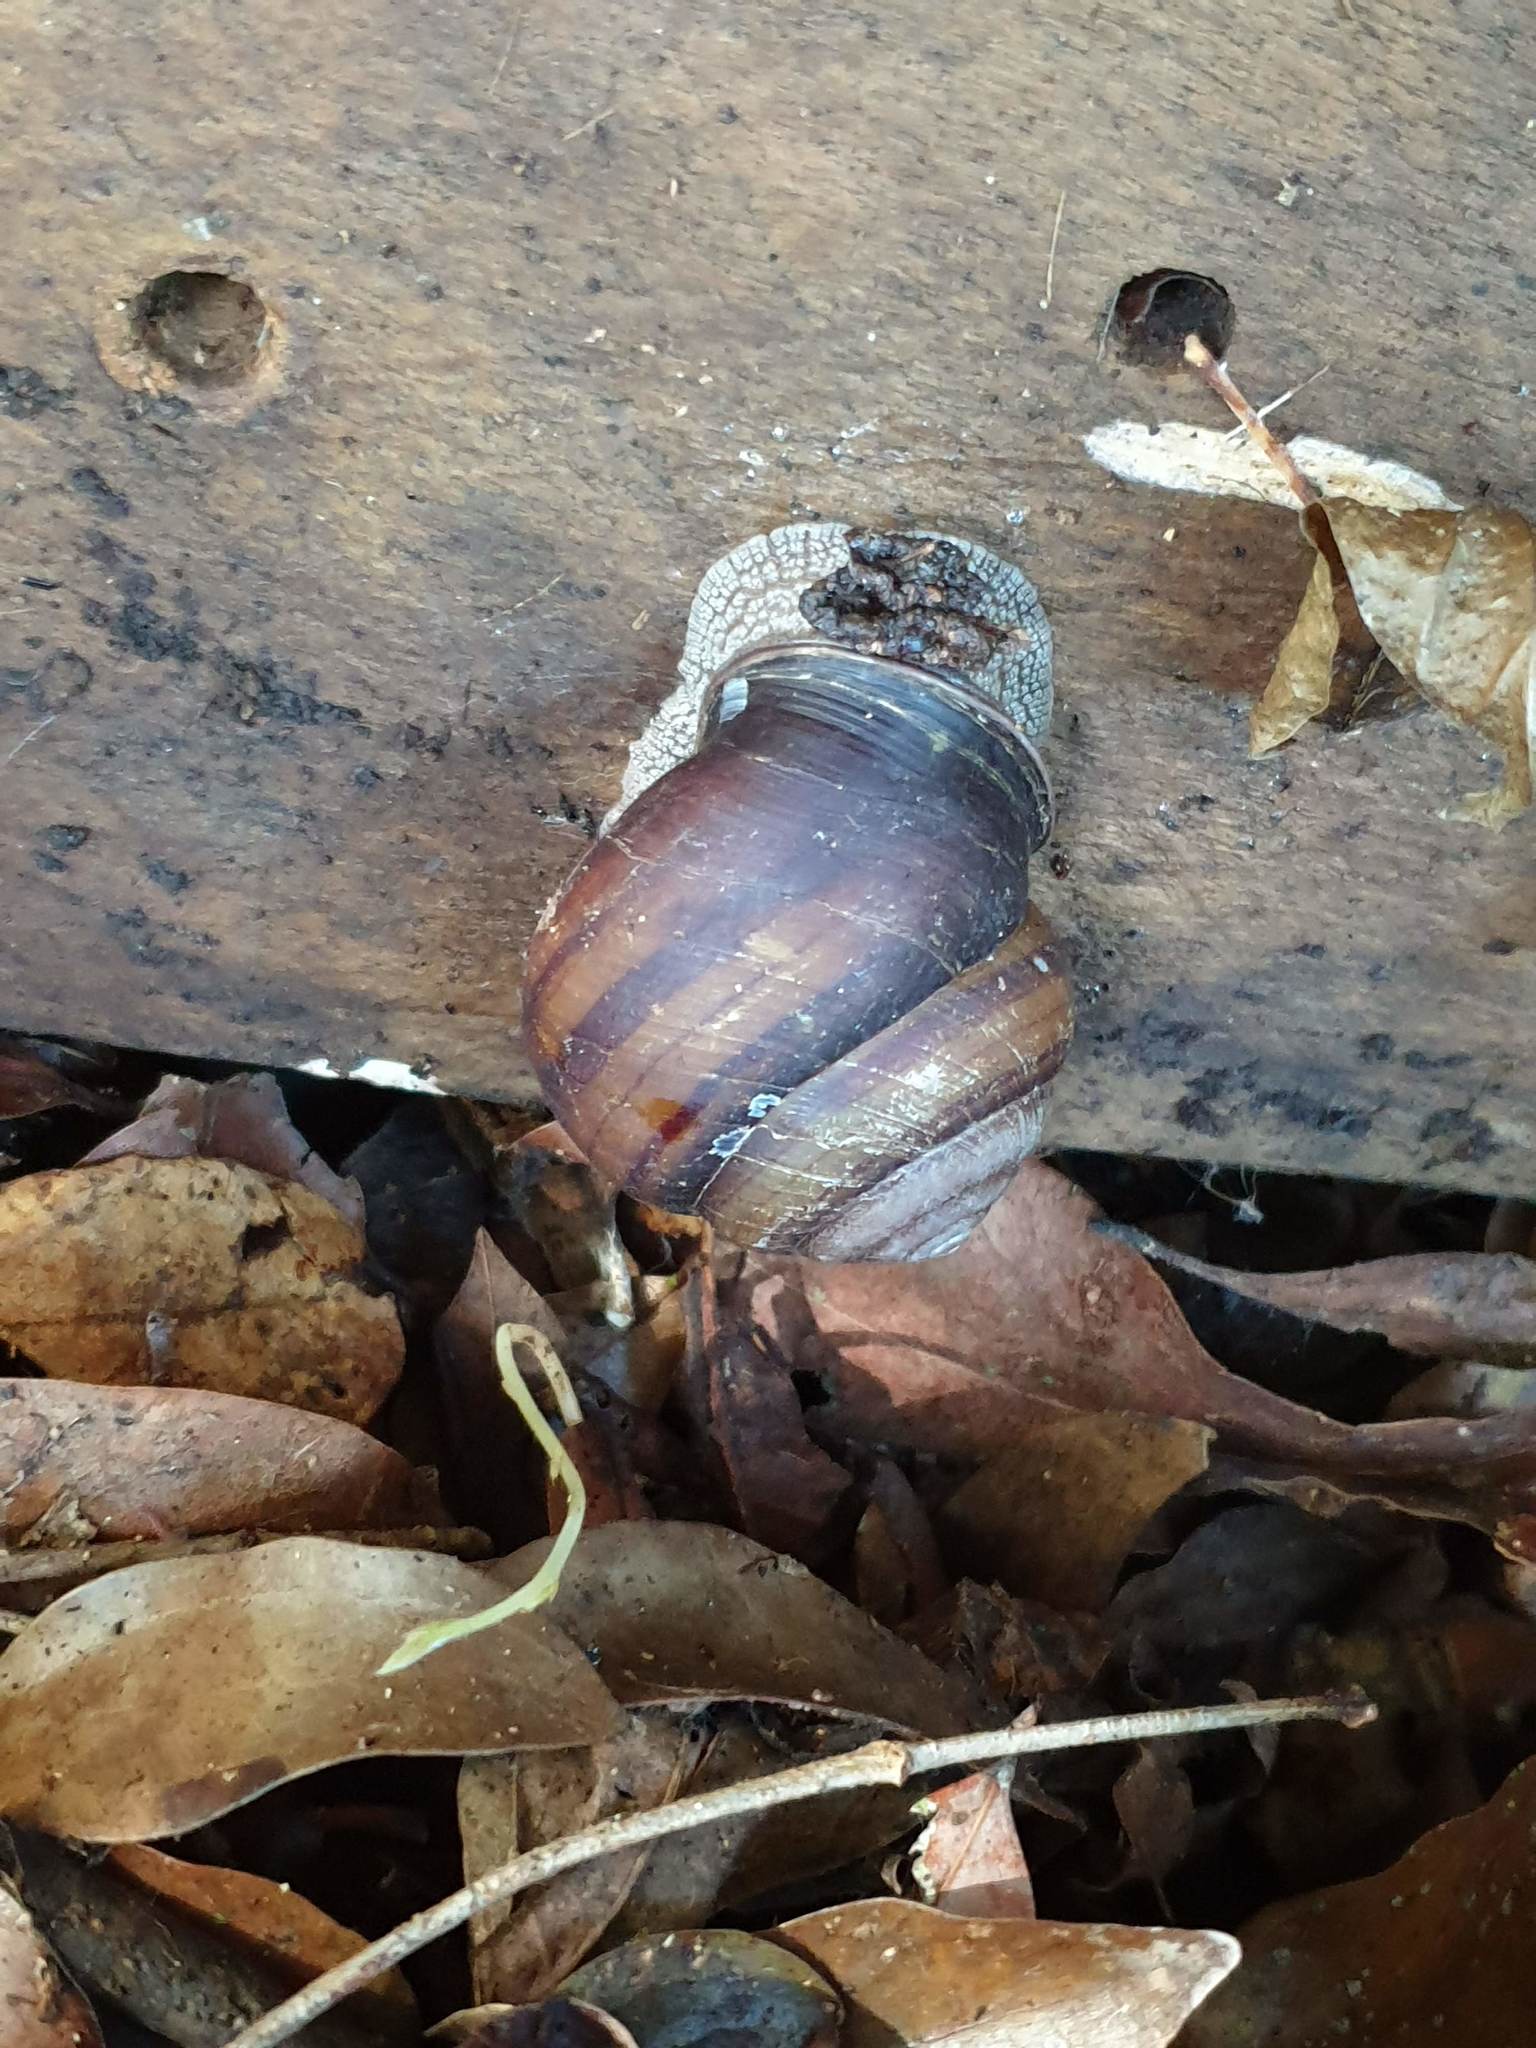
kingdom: Animalia
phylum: Mollusca
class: Gastropoda
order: Stylommatophora
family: Camaenidae
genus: Sphaerospira
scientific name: Sphaerospira fraseri
